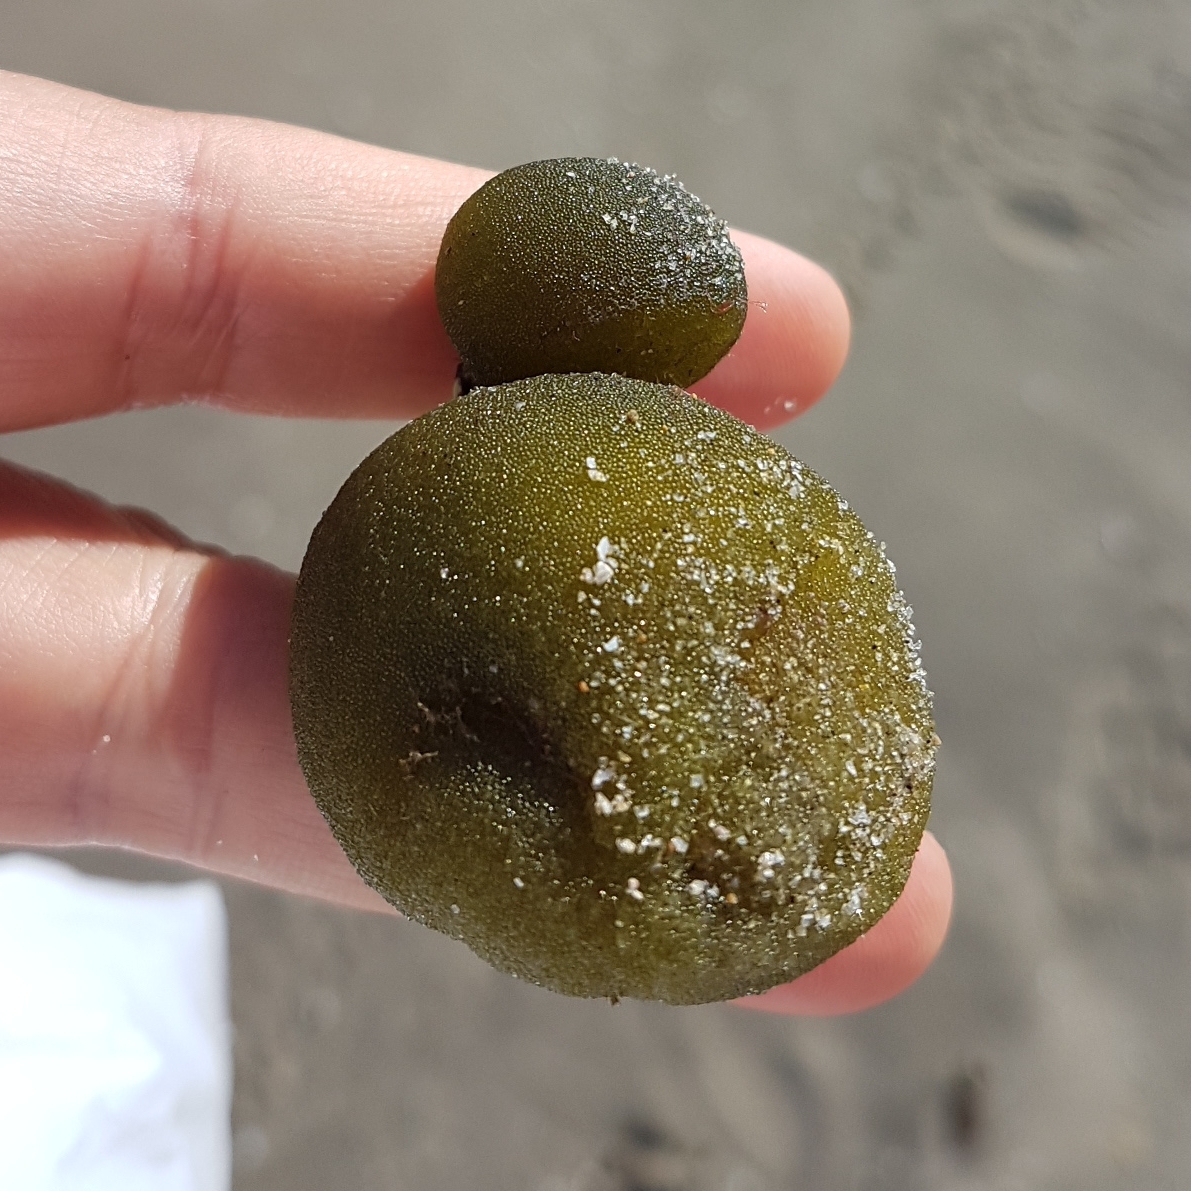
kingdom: Plantae
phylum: Chlorophyta
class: Ulvophyceae
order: Bryopsidales
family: Codiaceae
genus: Codium
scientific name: Codium bursa
